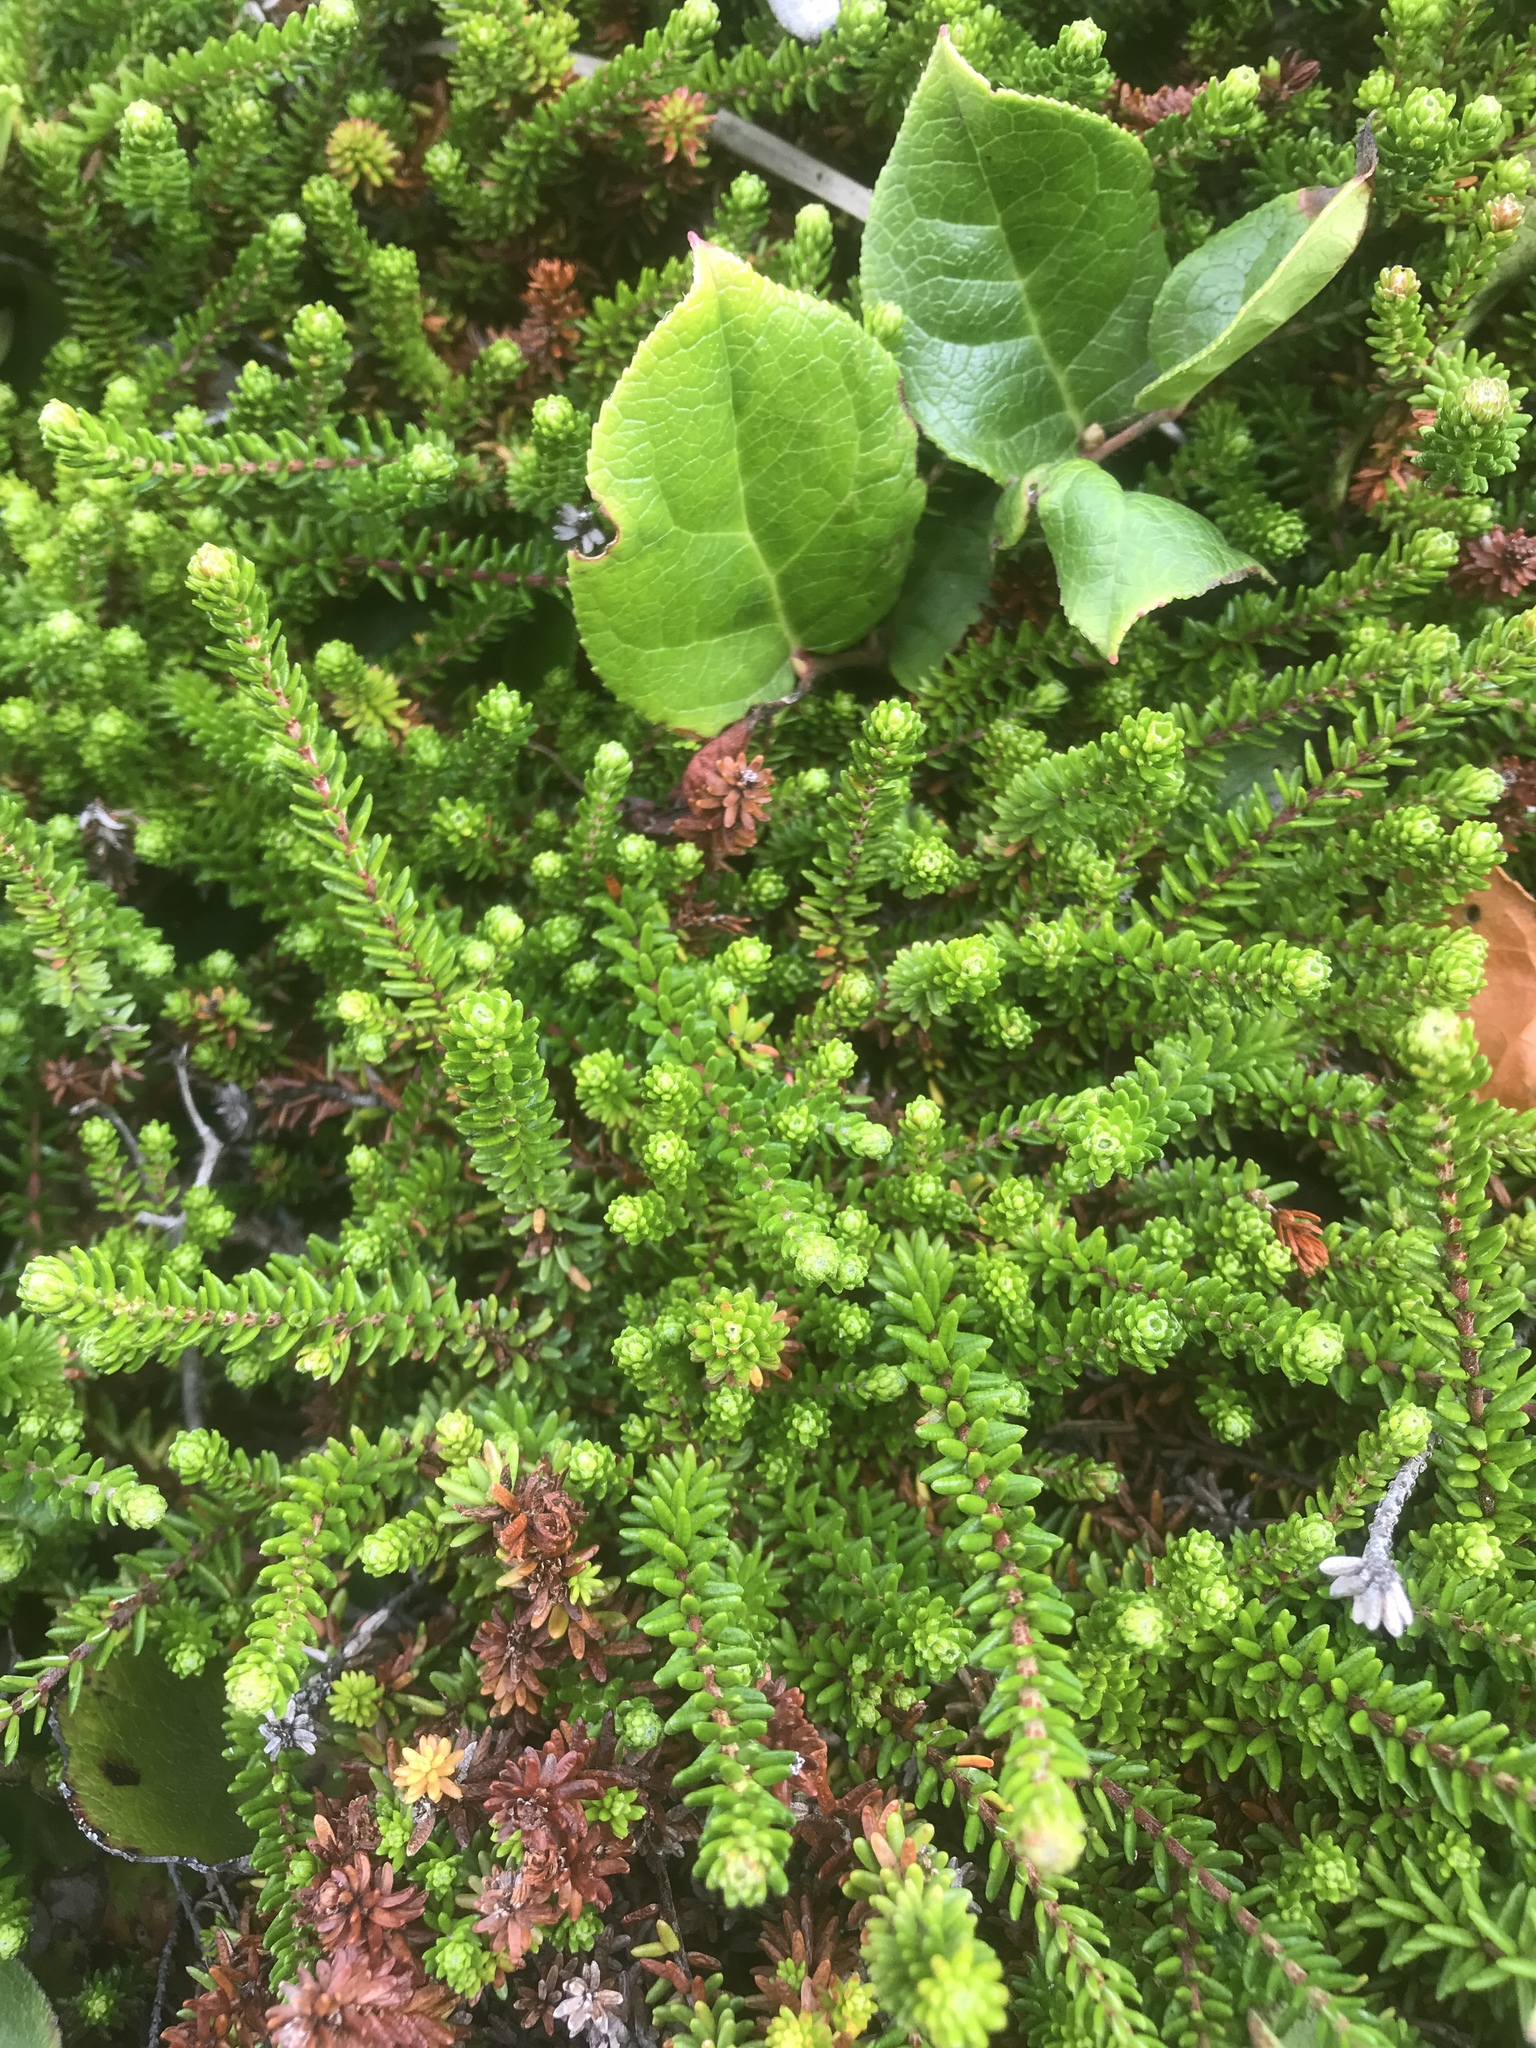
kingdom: Plantae
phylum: Tracheophyta
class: Magnoliopsida
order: Ericales
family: Ericaceae
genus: Empetrum
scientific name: Empetrum nigrum
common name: Black crowberry
